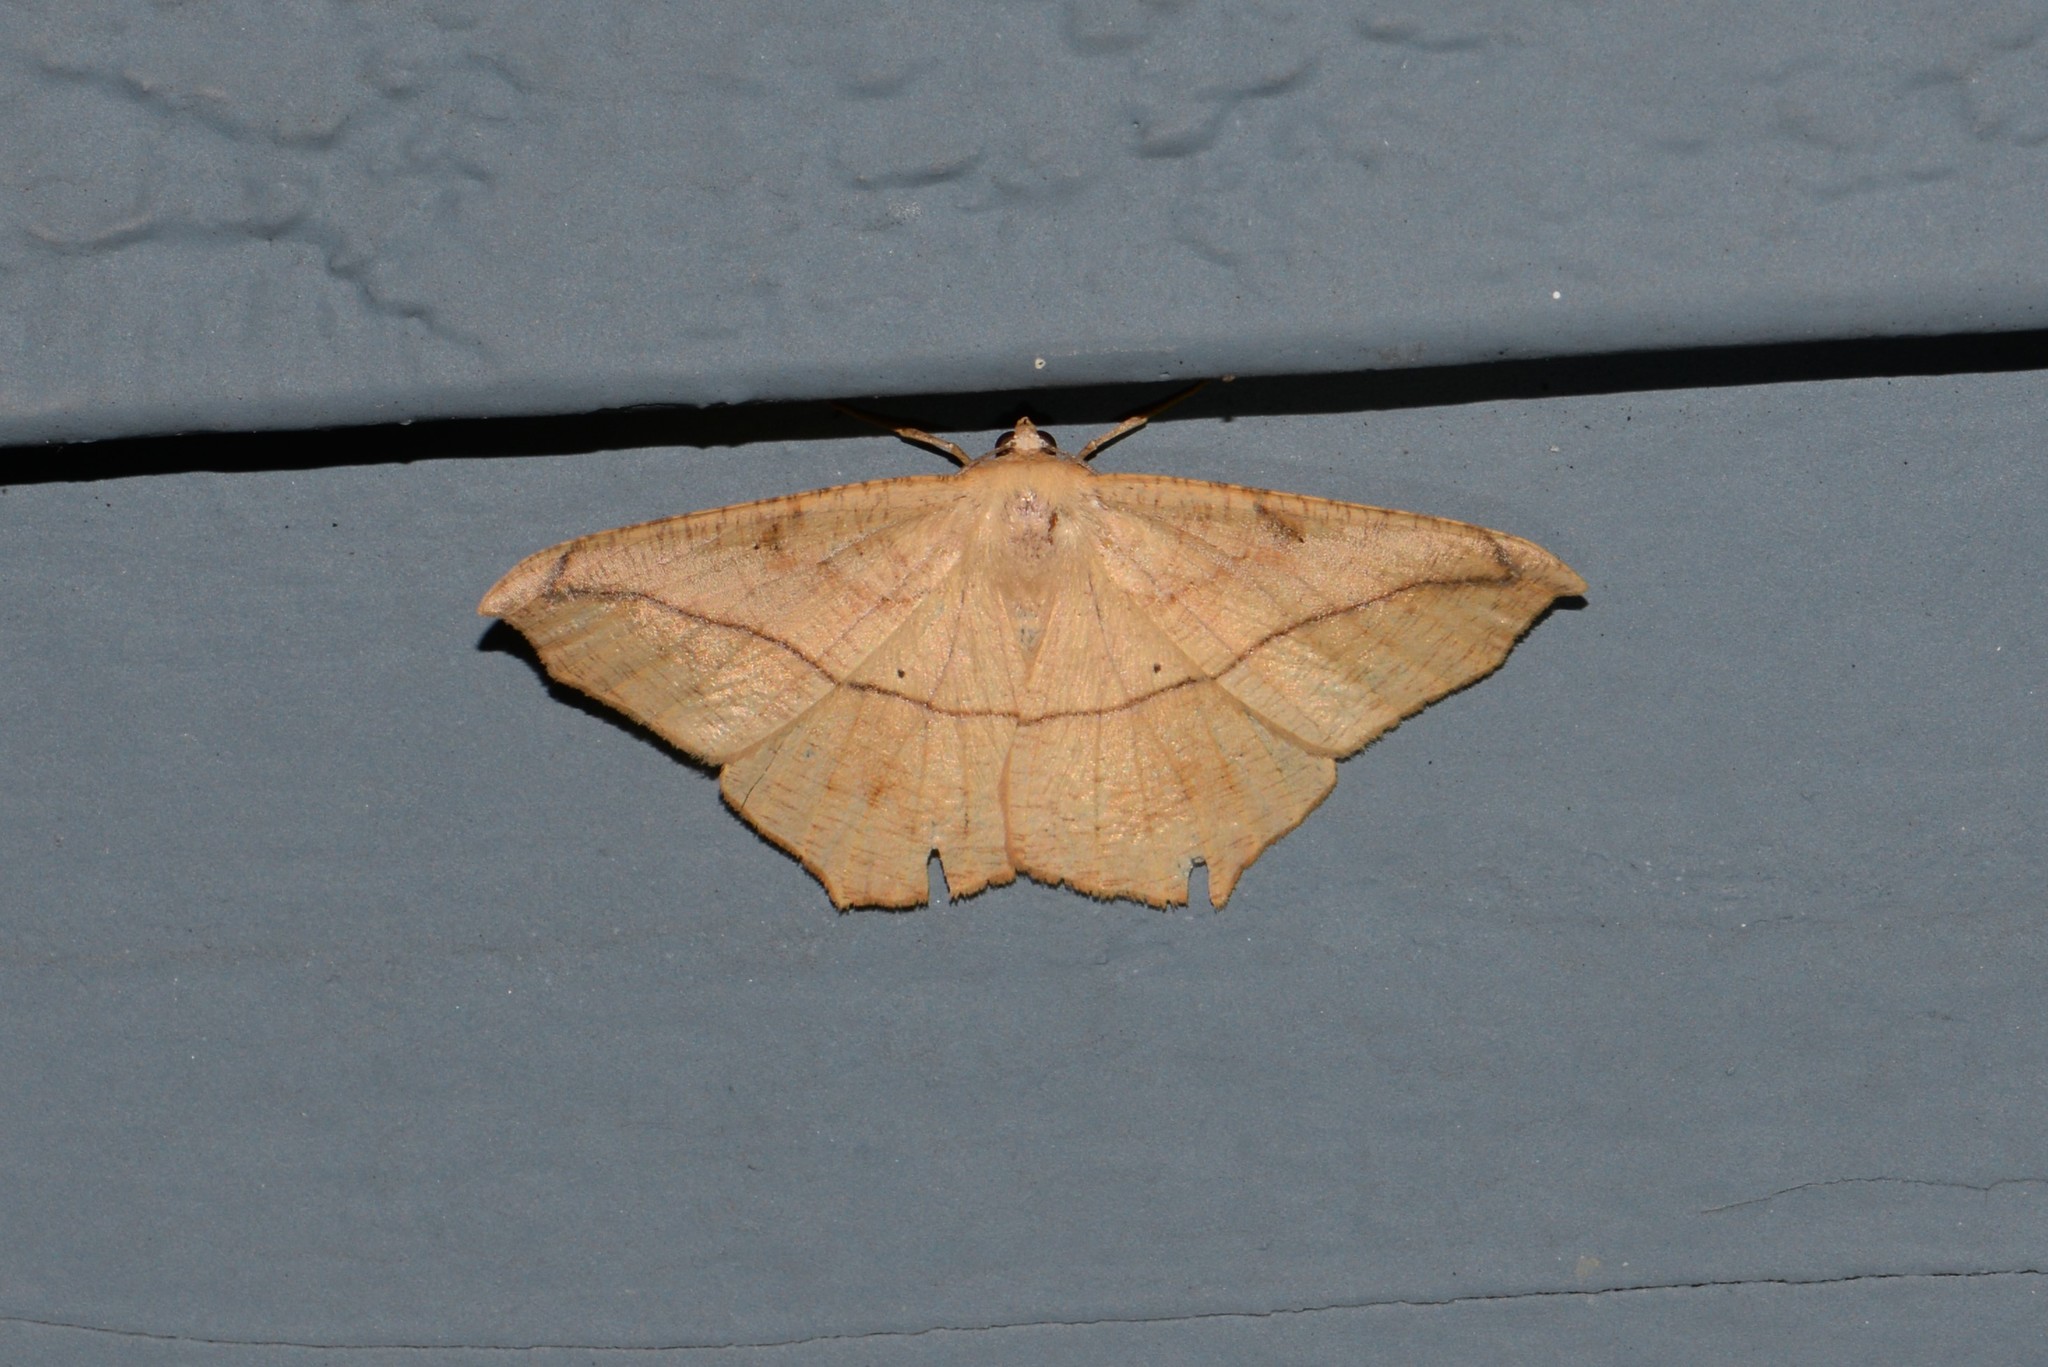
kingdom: Animalia
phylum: Arthropoda
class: Insecta
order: Lepidoptera
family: Geometridae
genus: Prochoerodes
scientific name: Prochoerodes lineola
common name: Large maple spanworm
